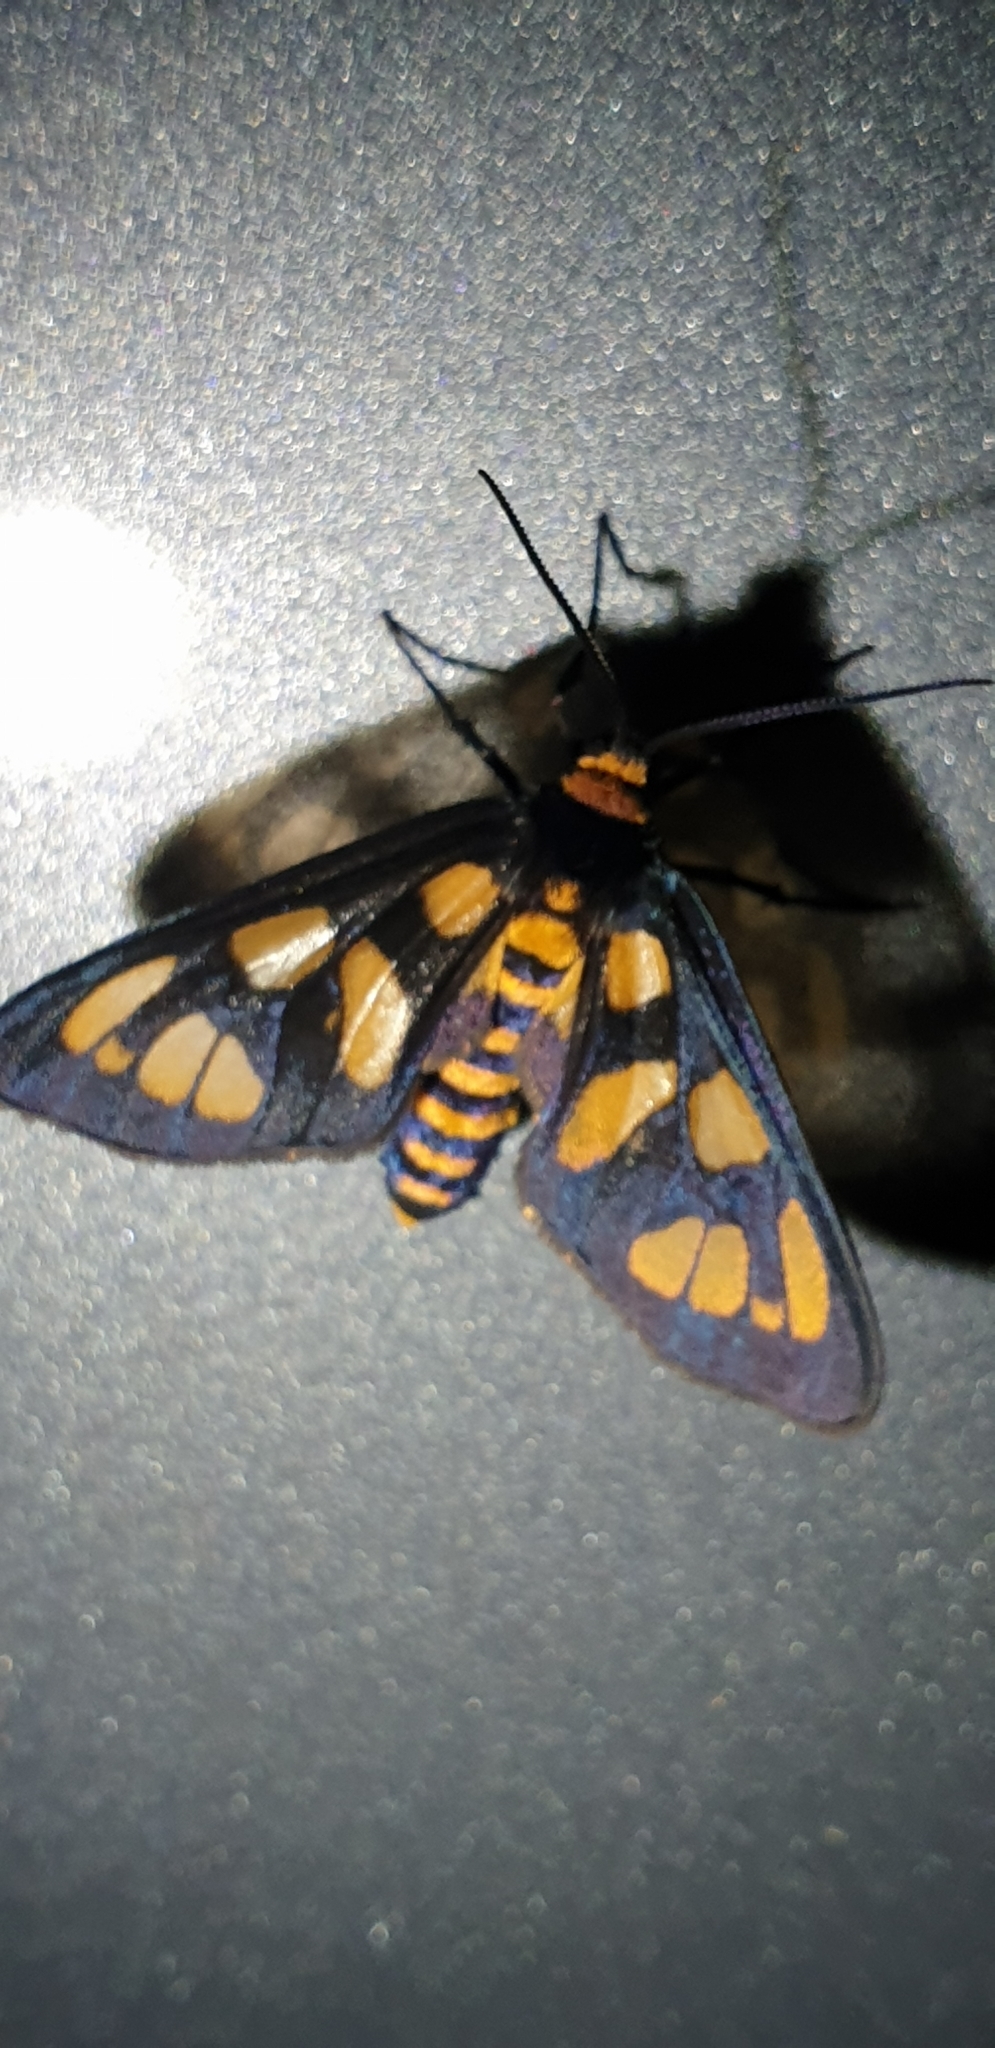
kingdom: Animalia
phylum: Arthropoda
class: Insecta
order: Lepidoptera
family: Erebidae
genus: Amata
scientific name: Amata trigonophora
